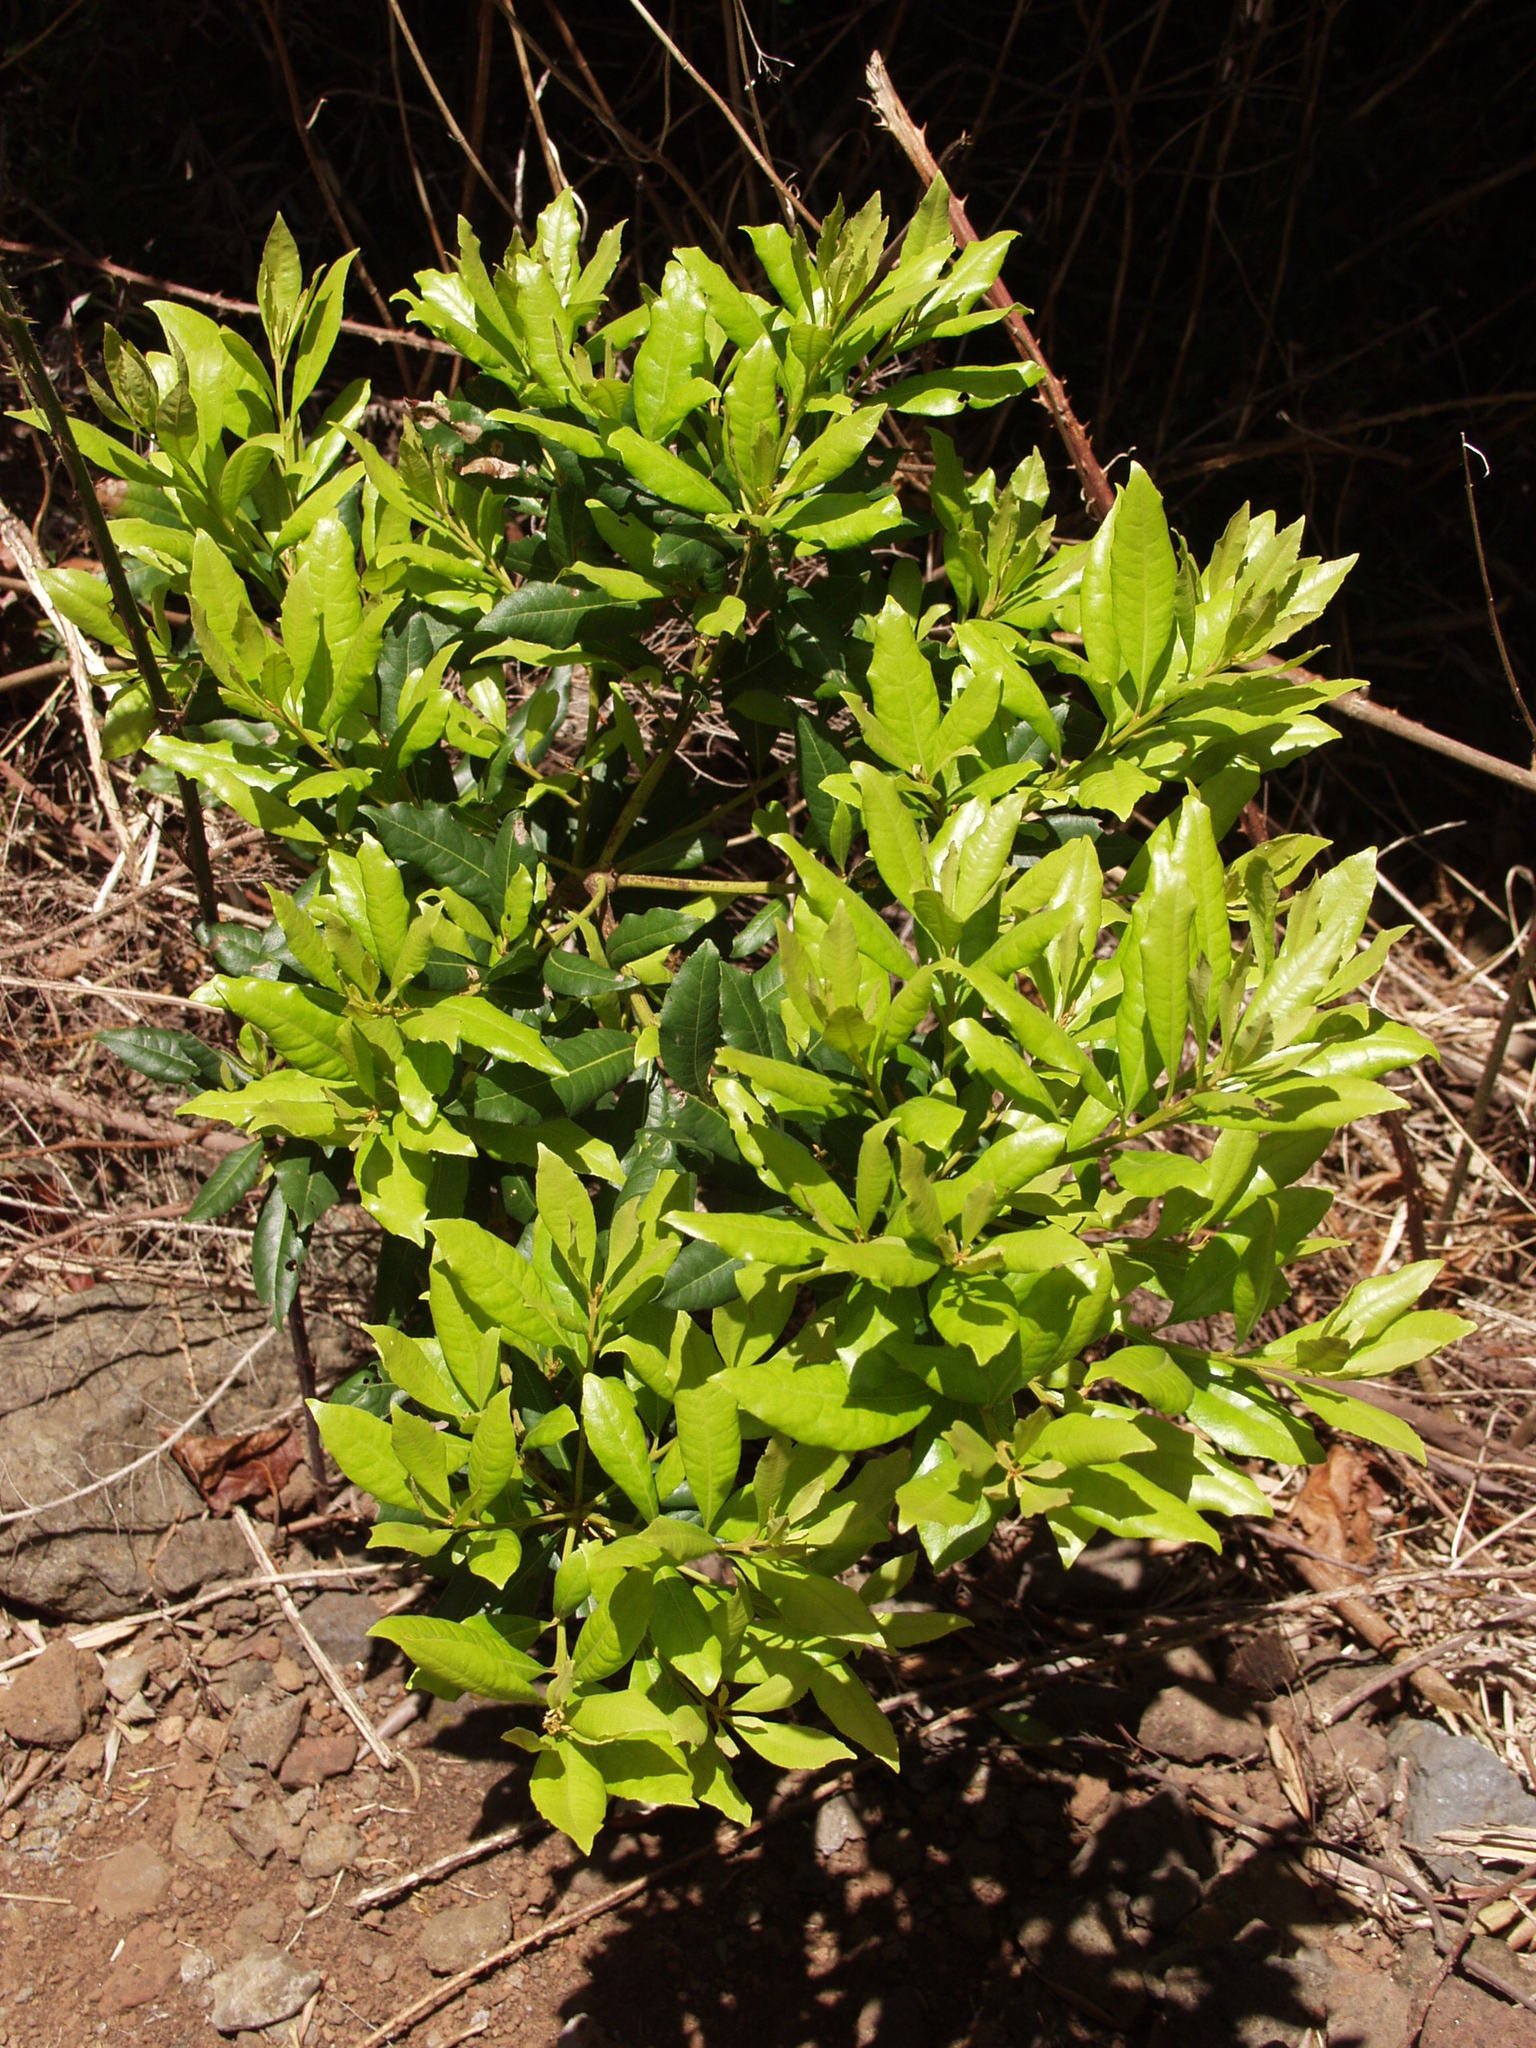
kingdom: Plantae
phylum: Tracheophyta
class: Magnoliopsida
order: Fagales
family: Myricaceae
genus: Morella
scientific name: Morella faya
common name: Firetree
